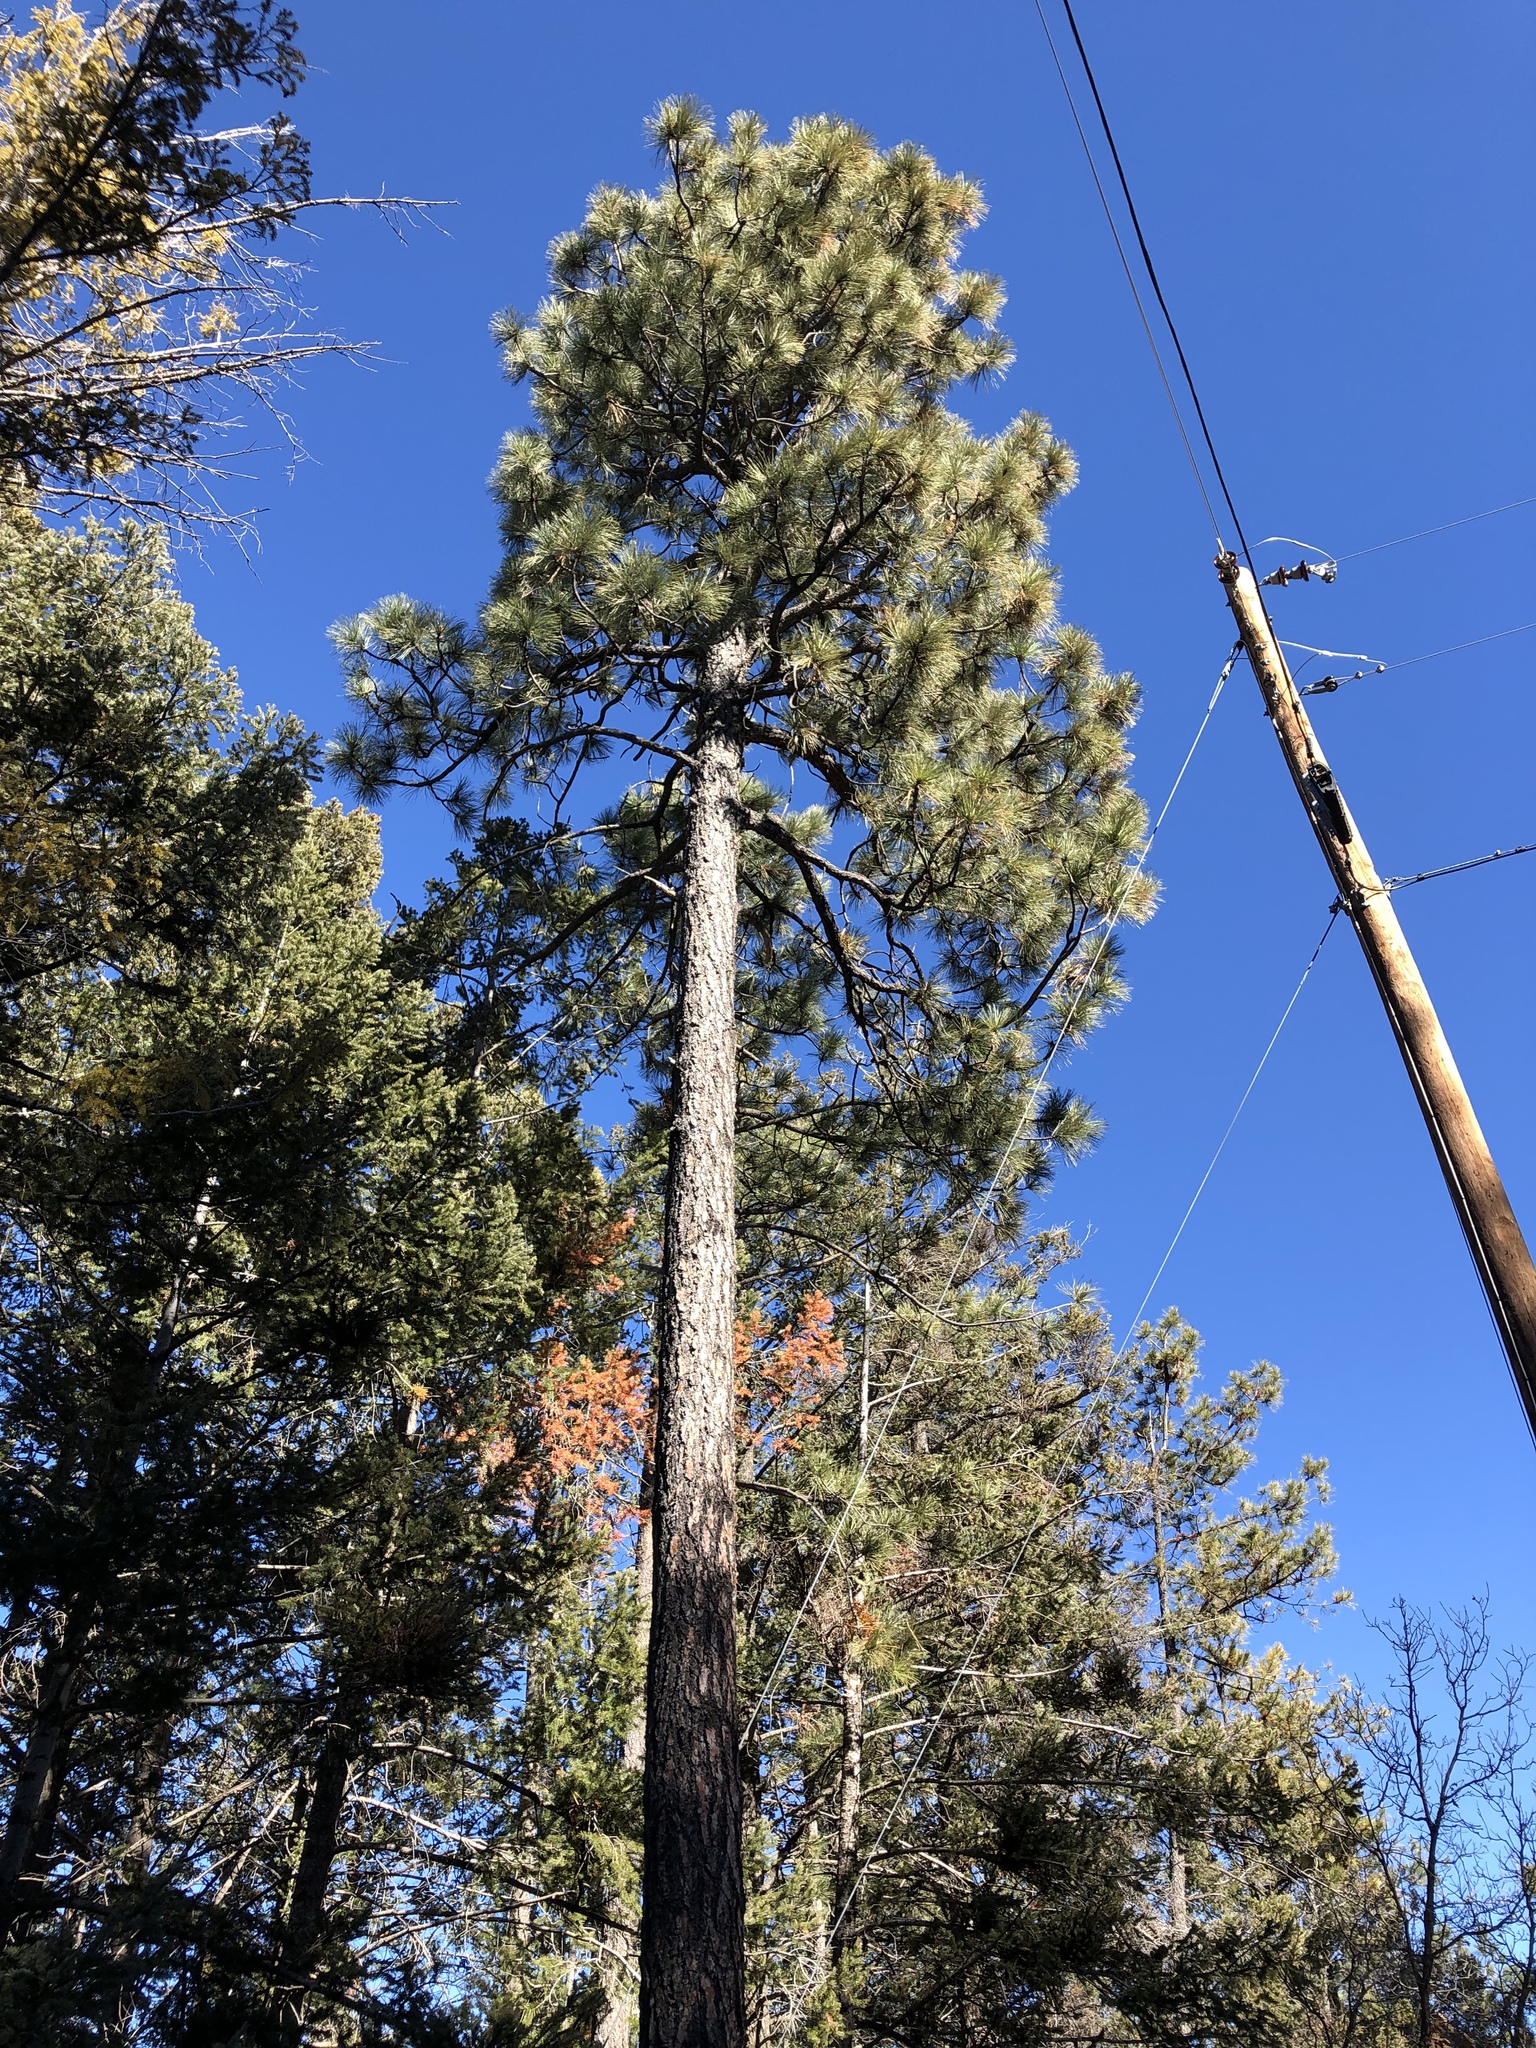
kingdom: Plantae
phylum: Tracheophyta
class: Pinopsida
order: Pinales
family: Pinaceae
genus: Pinus
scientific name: Pinus ponderosa
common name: Western yellow-pine
